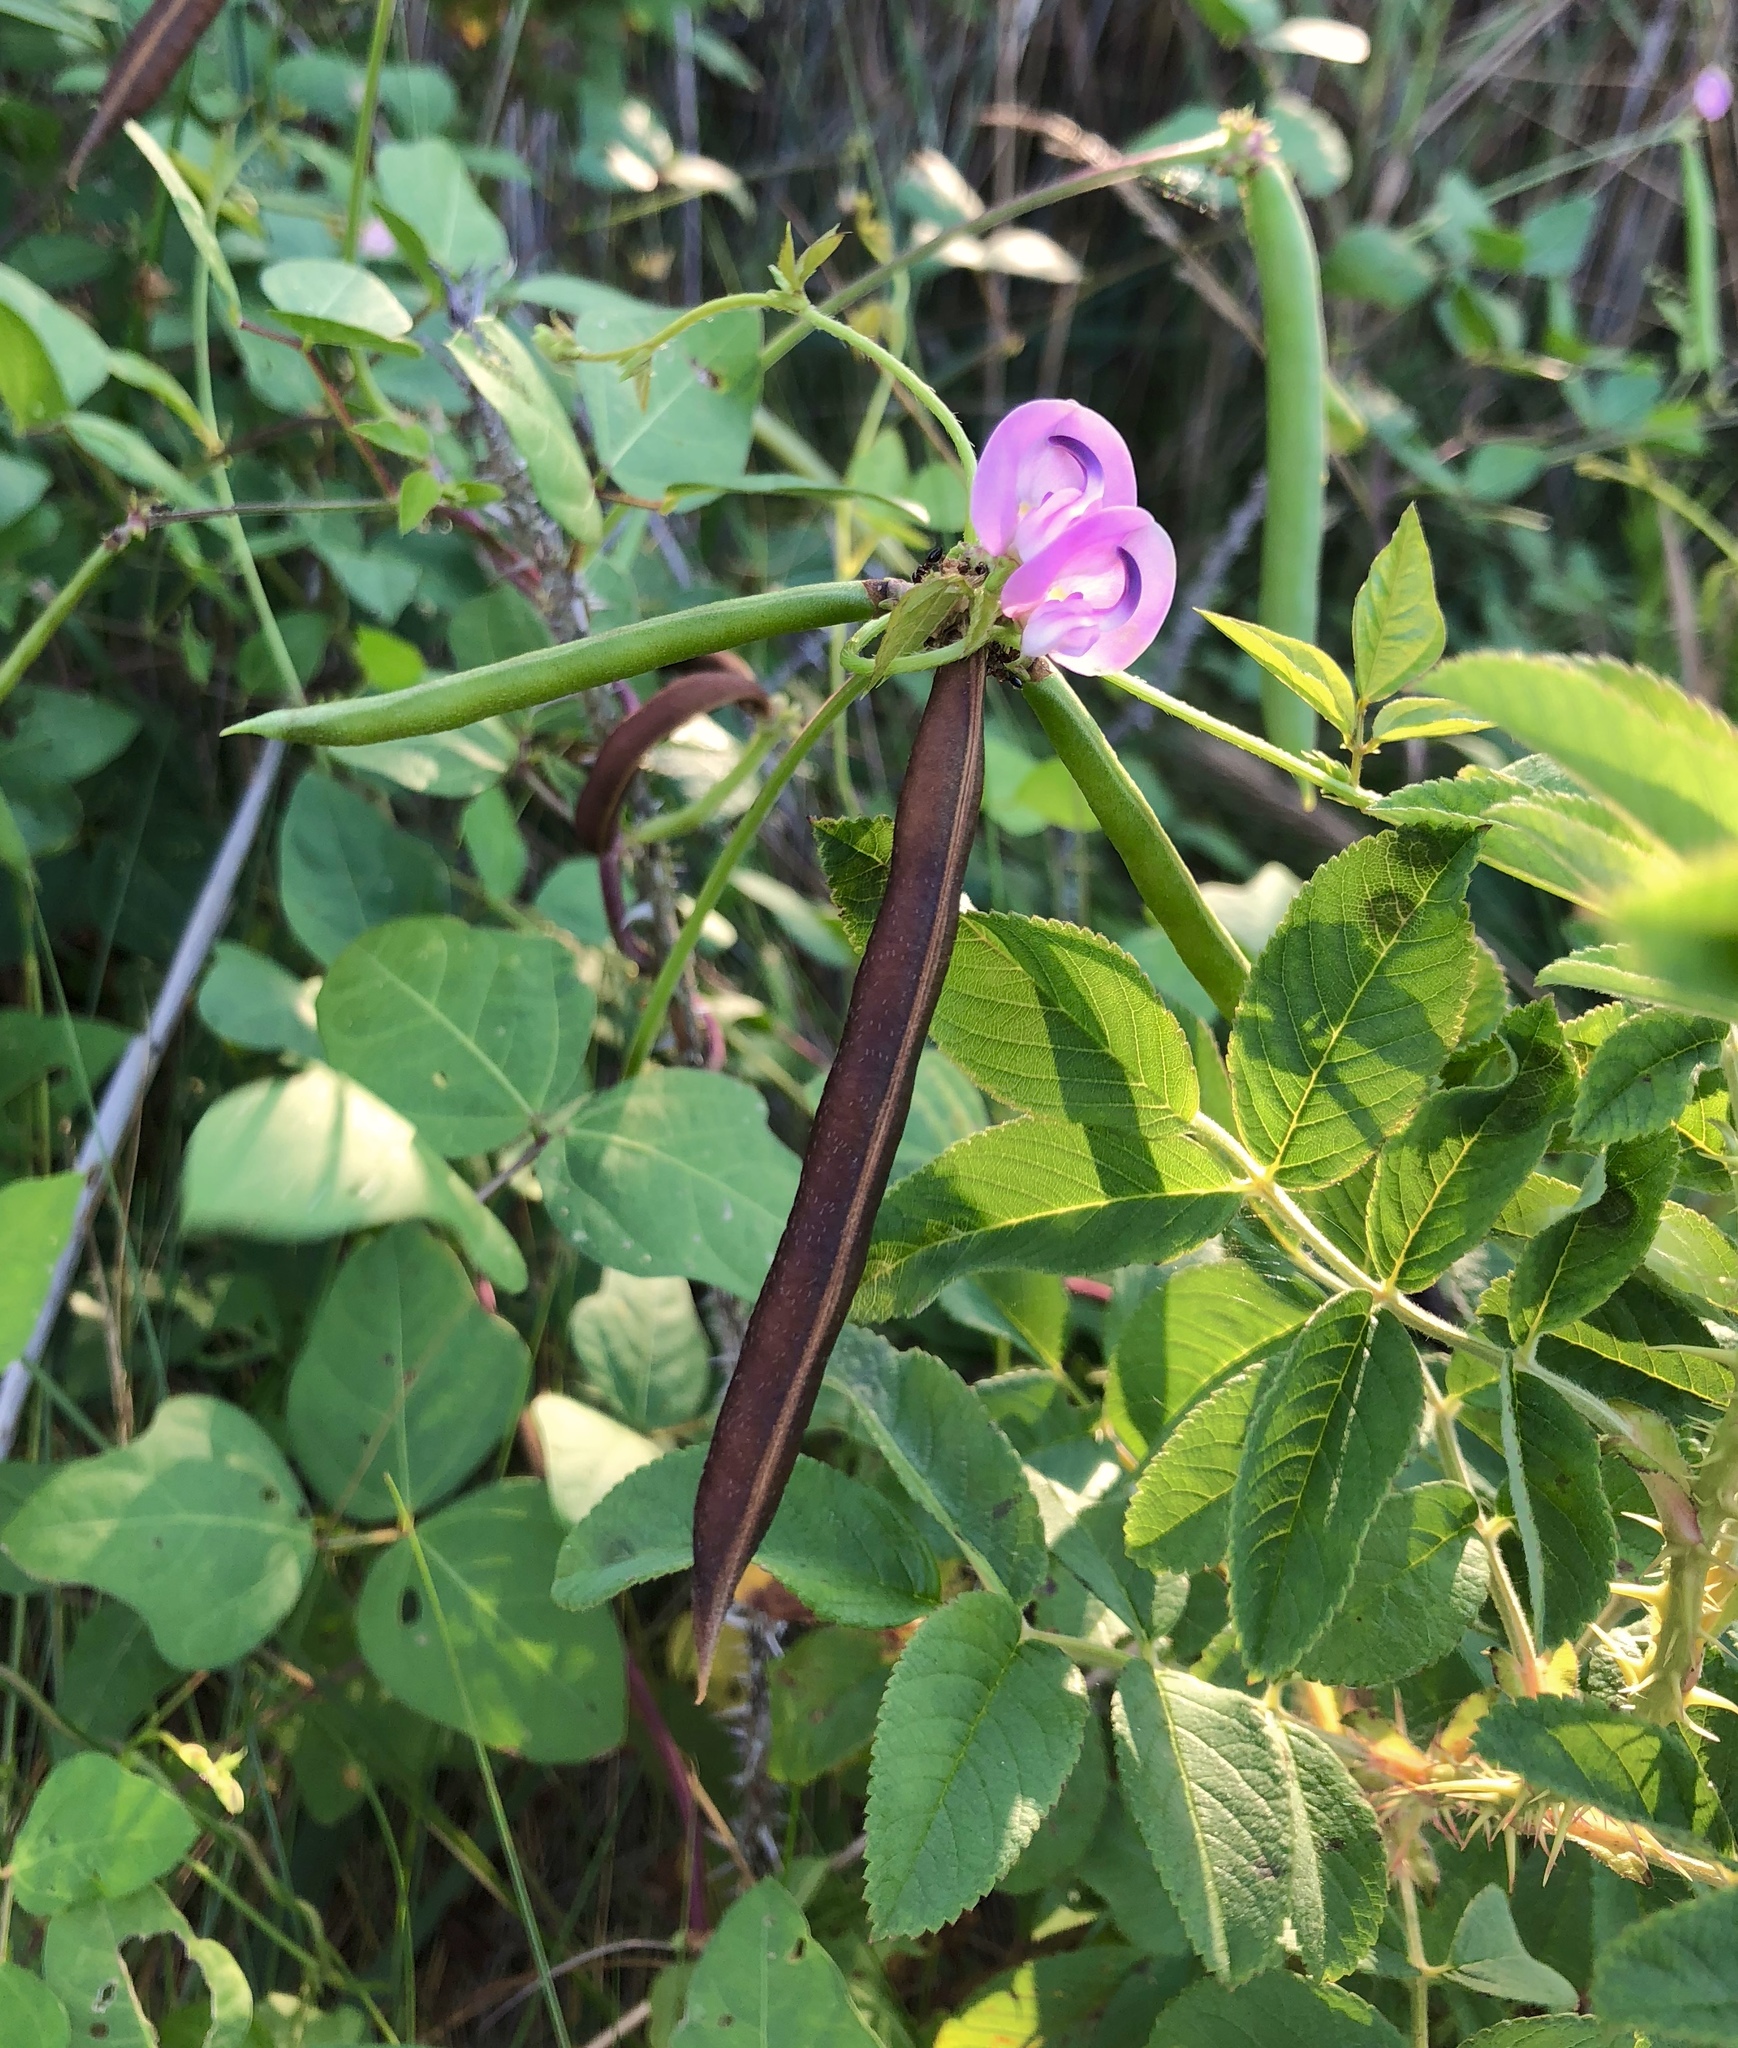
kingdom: Plantae
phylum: Tracheophyta
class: Magnoliopsida
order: Fabales
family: Fabaceae
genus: Strophostyles
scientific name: Strophostyles helvola
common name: Trailing wild bean
